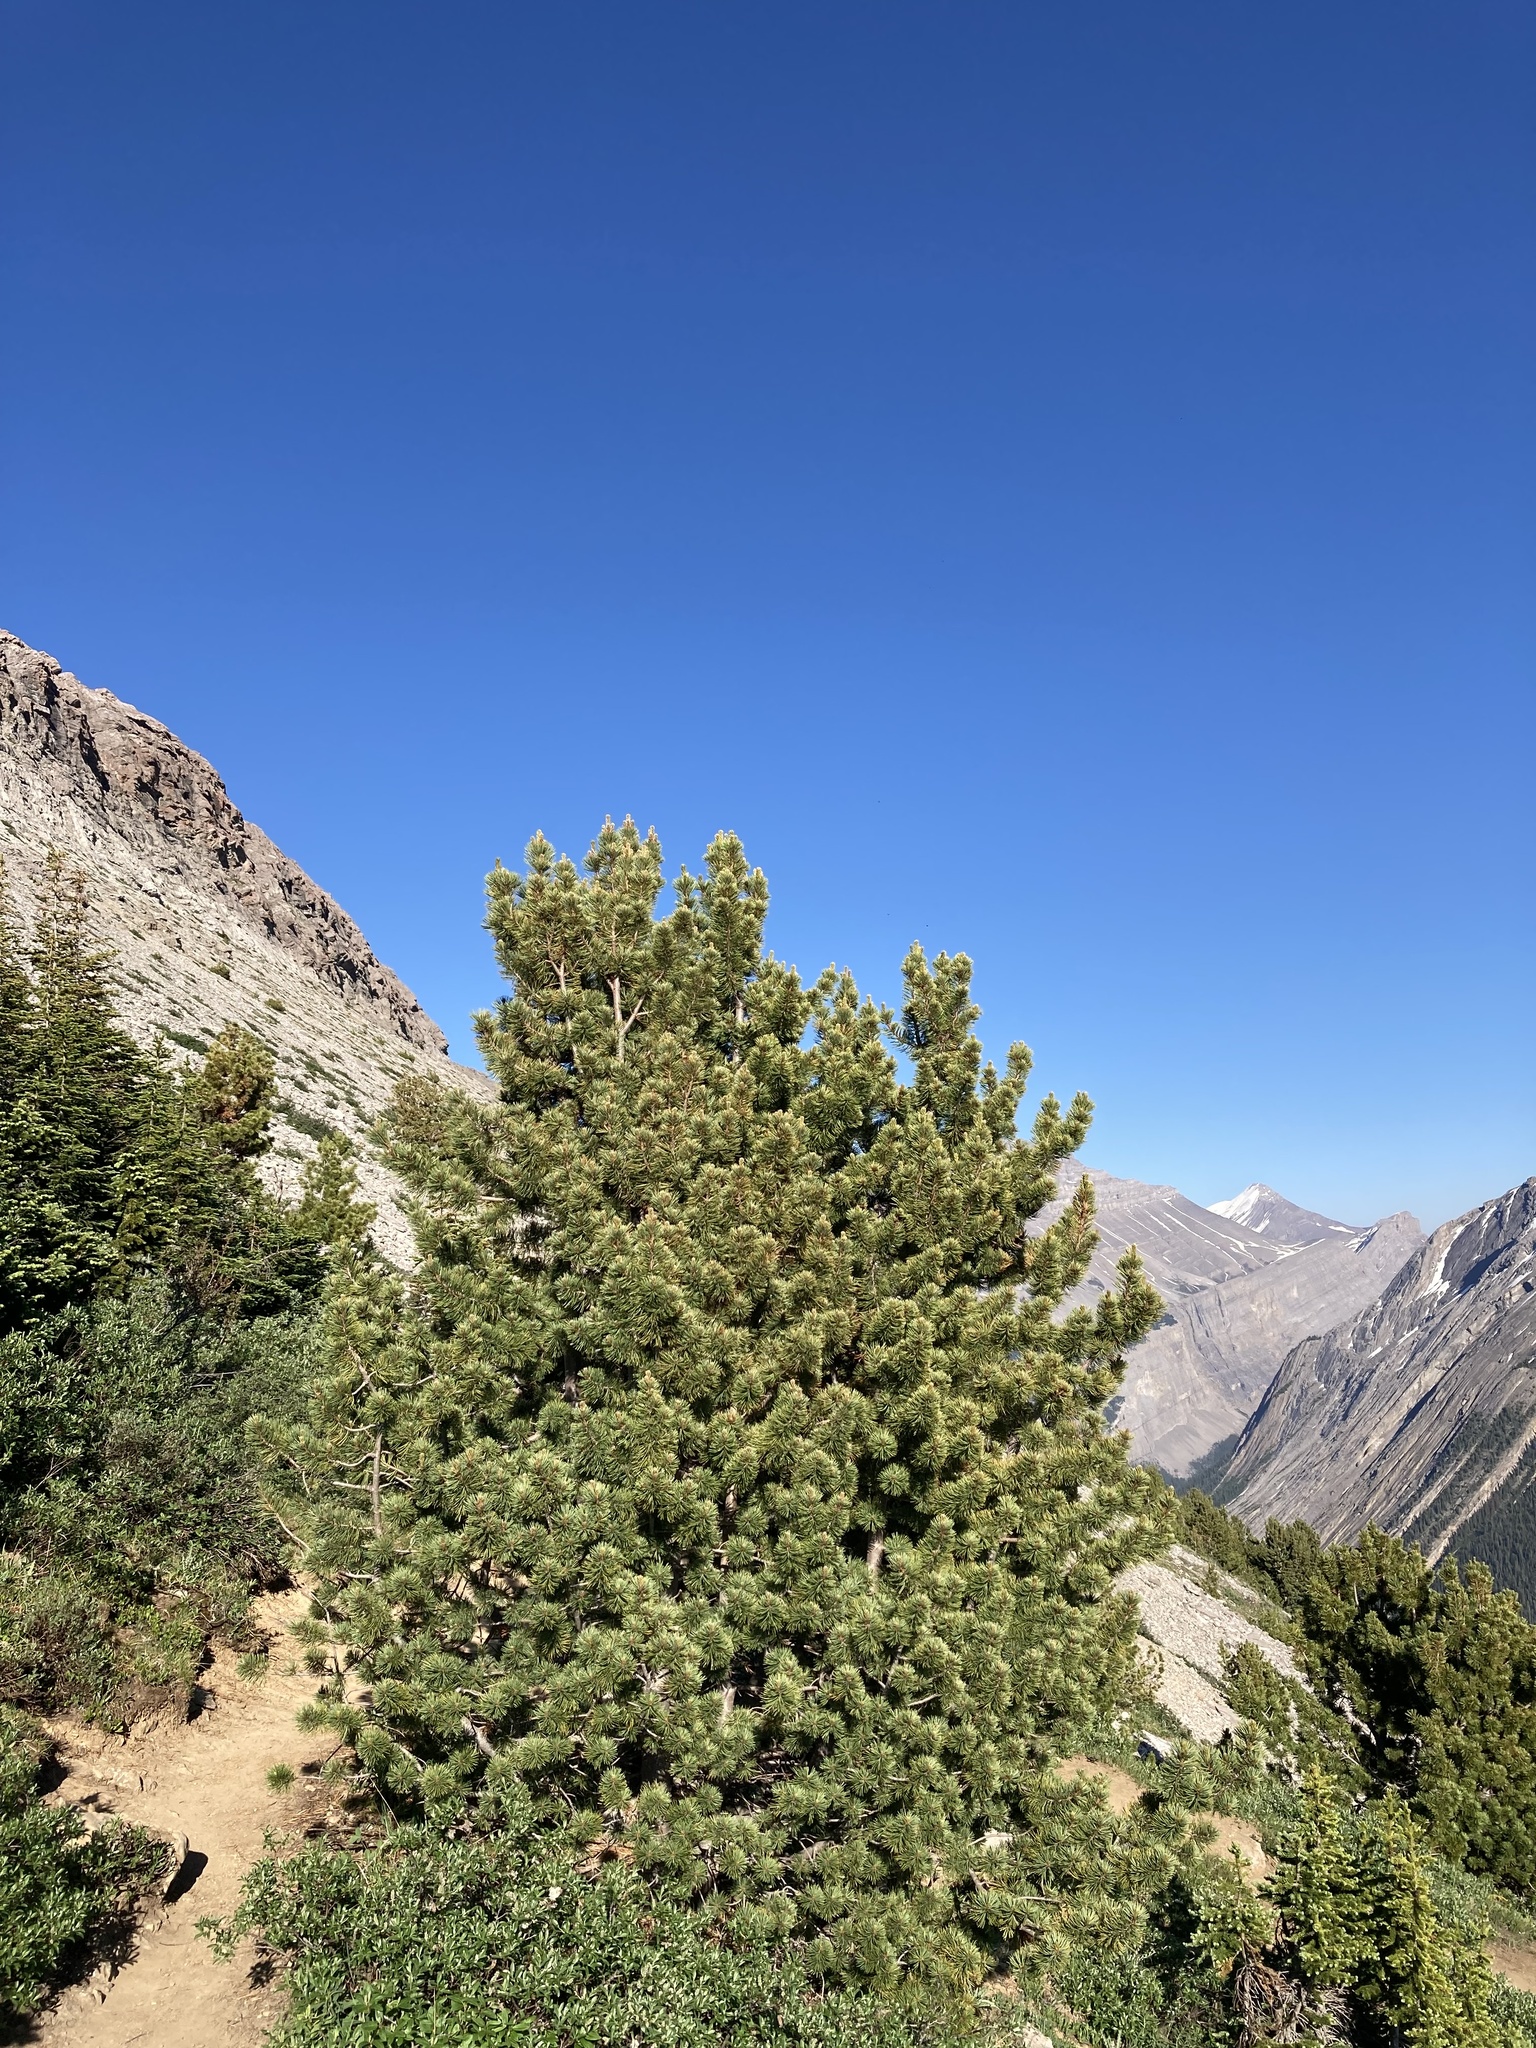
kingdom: Plantae
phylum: Tracheophyta
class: Pinopsida
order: Pinales
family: Pinaceae
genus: Pinus
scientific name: Pinus albicaulis
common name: Whitebark pine
